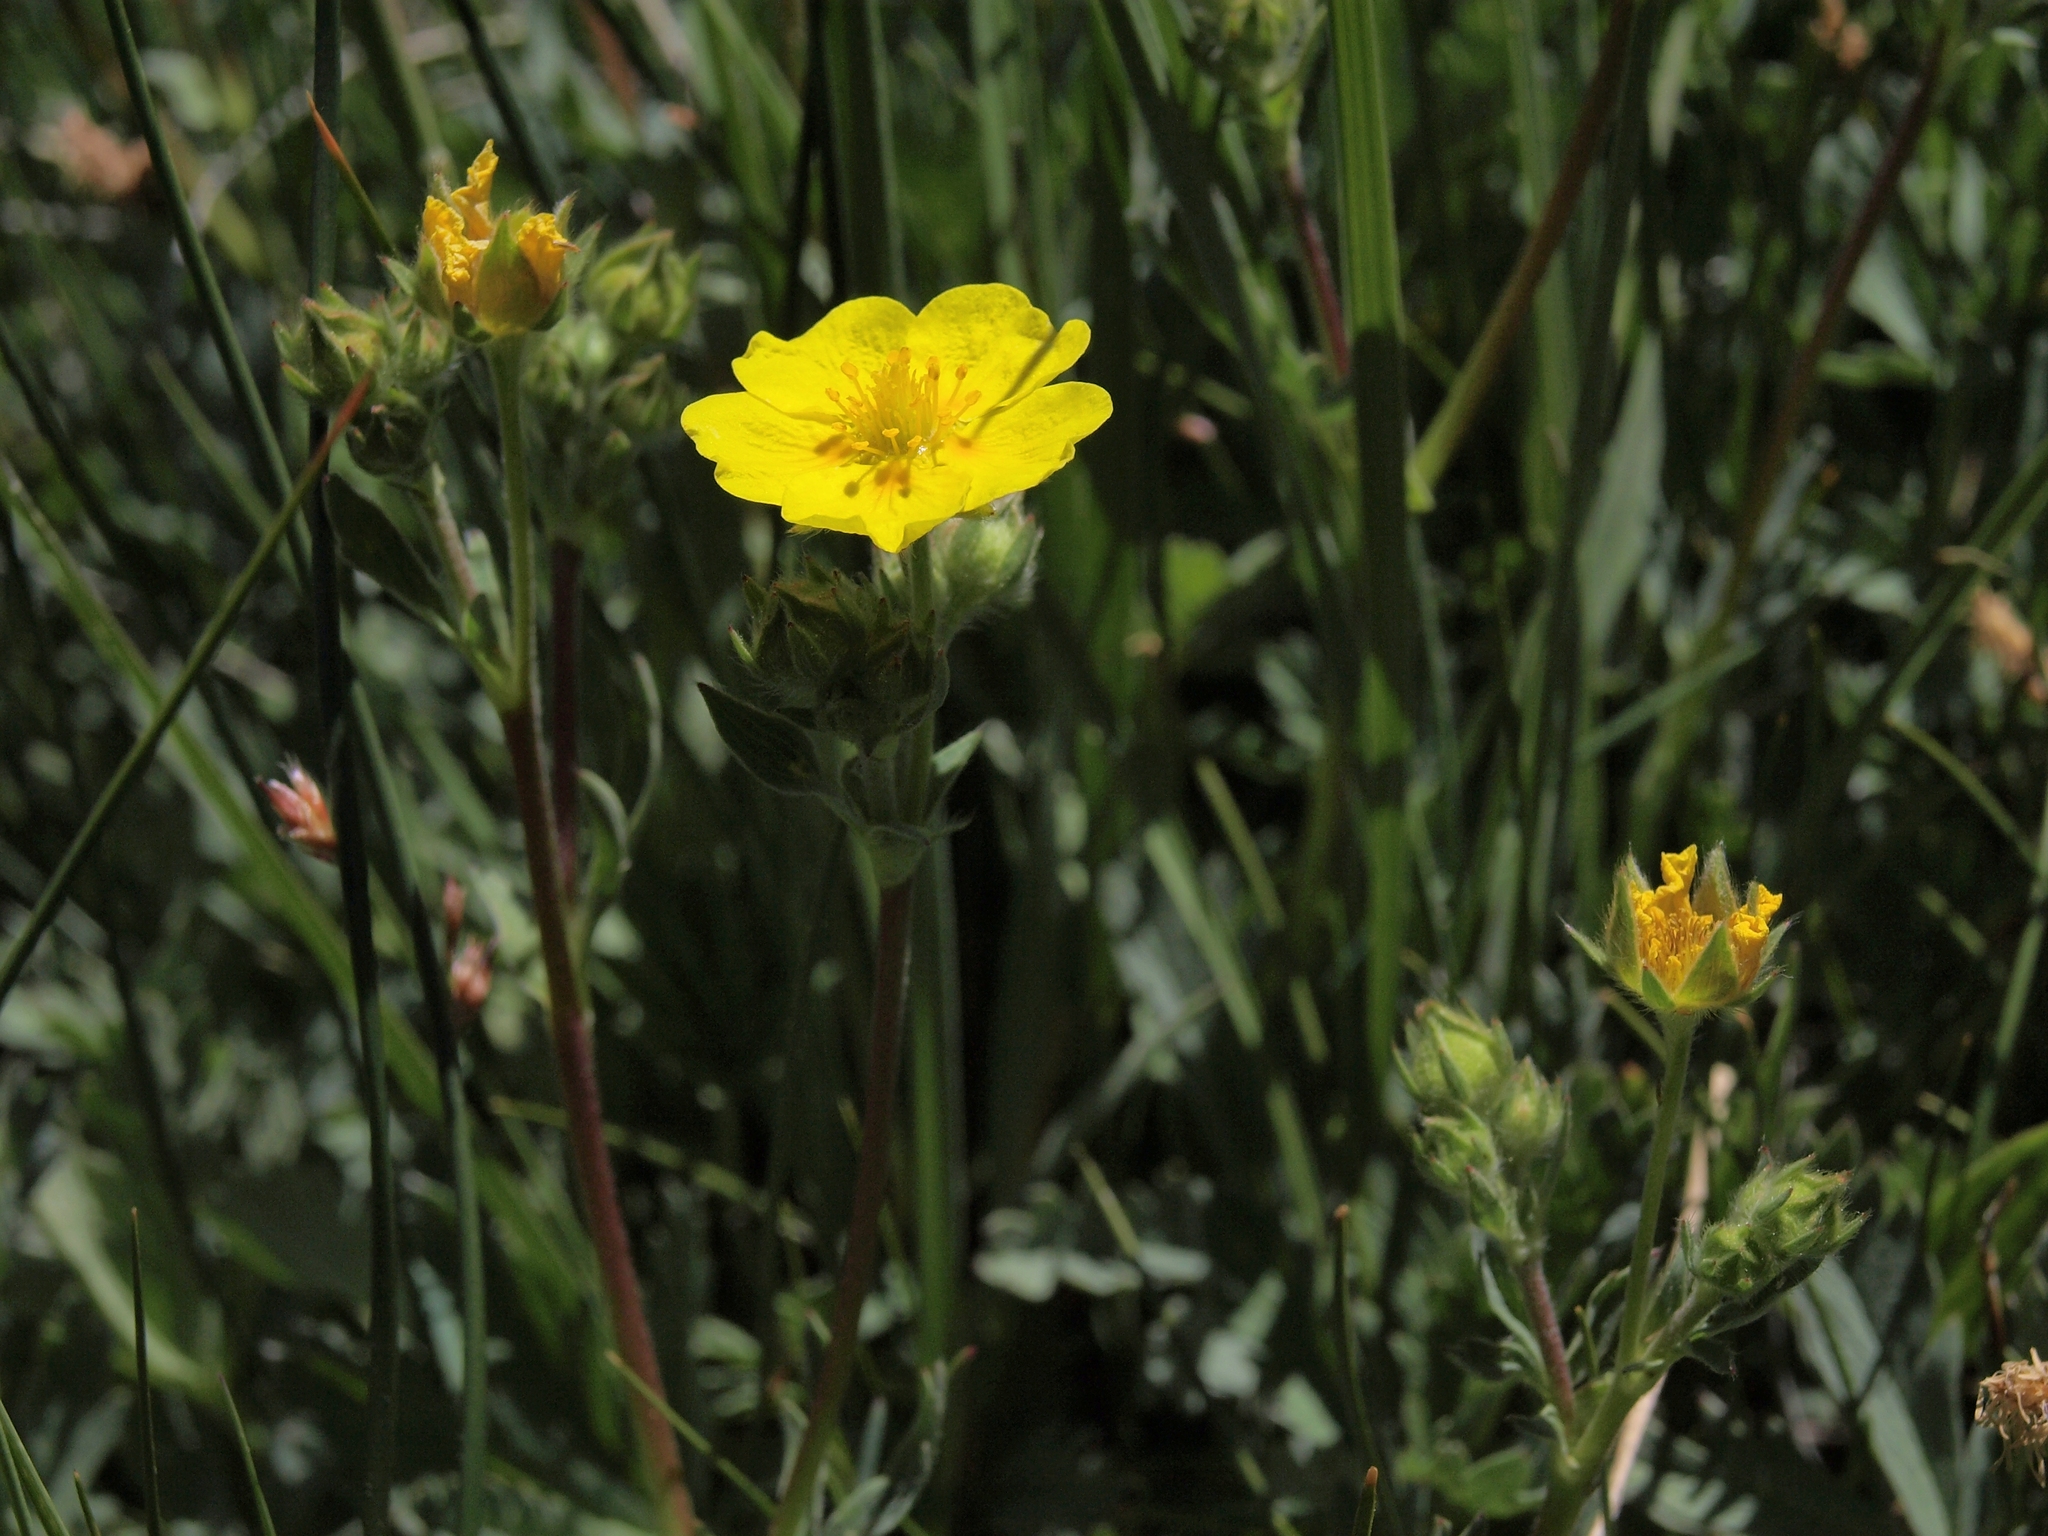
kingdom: Plantae
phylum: Tracheophyta
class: Magnoliopsida
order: Rosales
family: Rosaceae
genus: Potentilla
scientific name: Potentilla glaucophylla
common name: Blue-leaved cinquefoil
